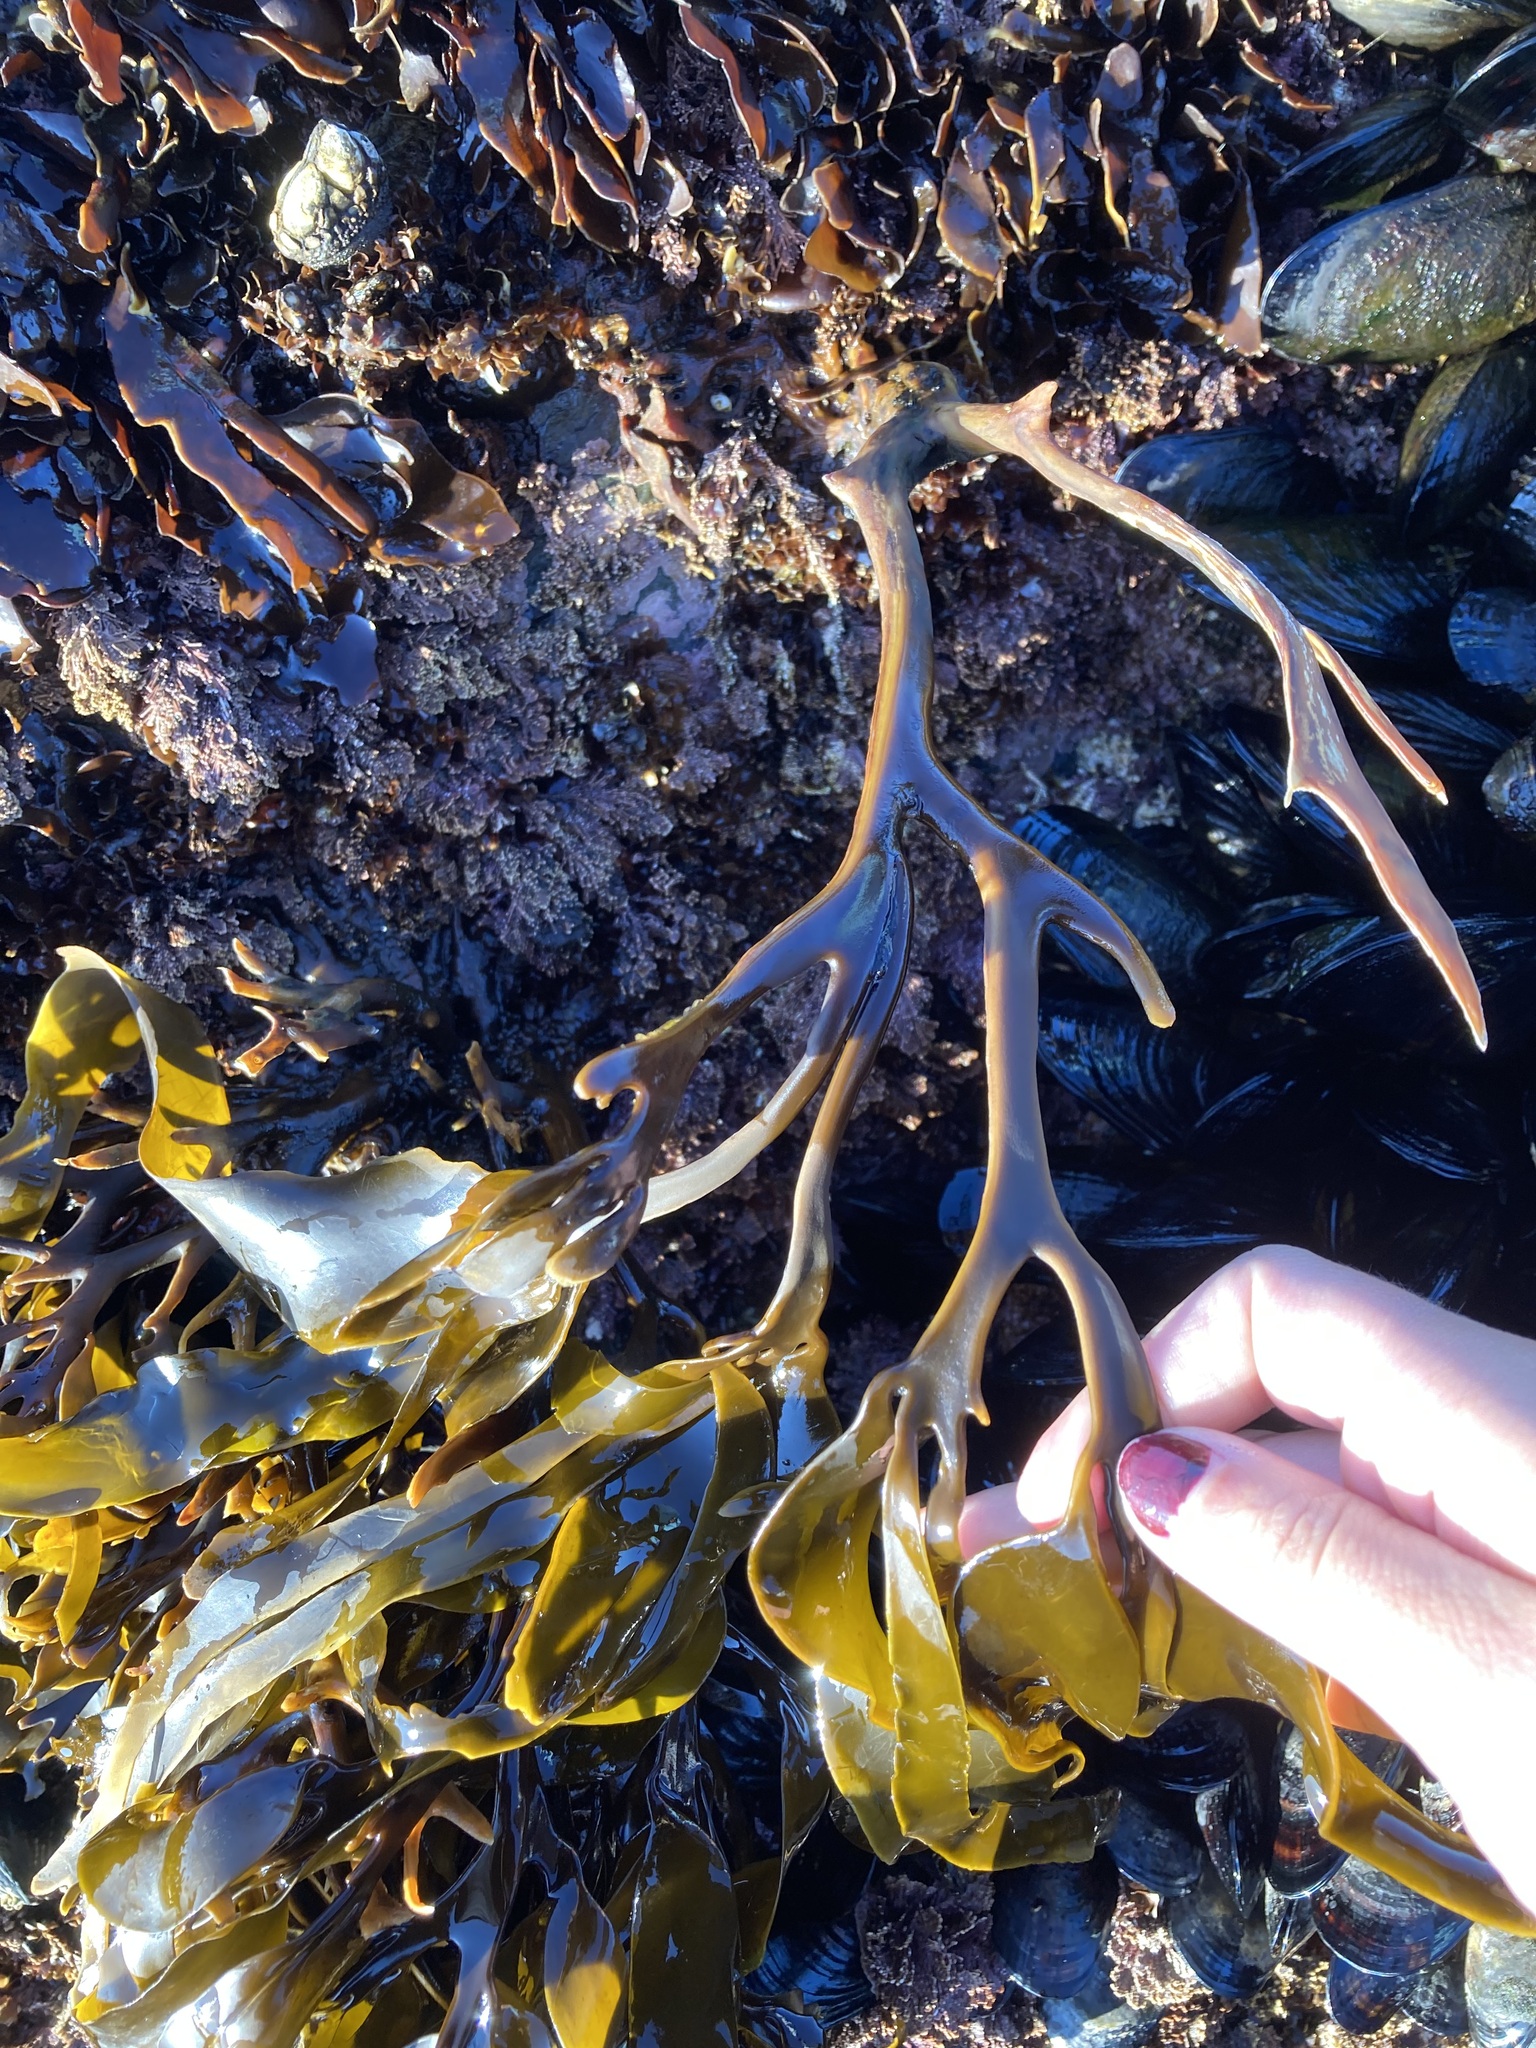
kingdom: Chromista
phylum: Ochrophyta
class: Phaeophyceae
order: Laminariales
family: Alariaceae
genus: Lessoniopsis
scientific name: Lessoniopsis littoralis
